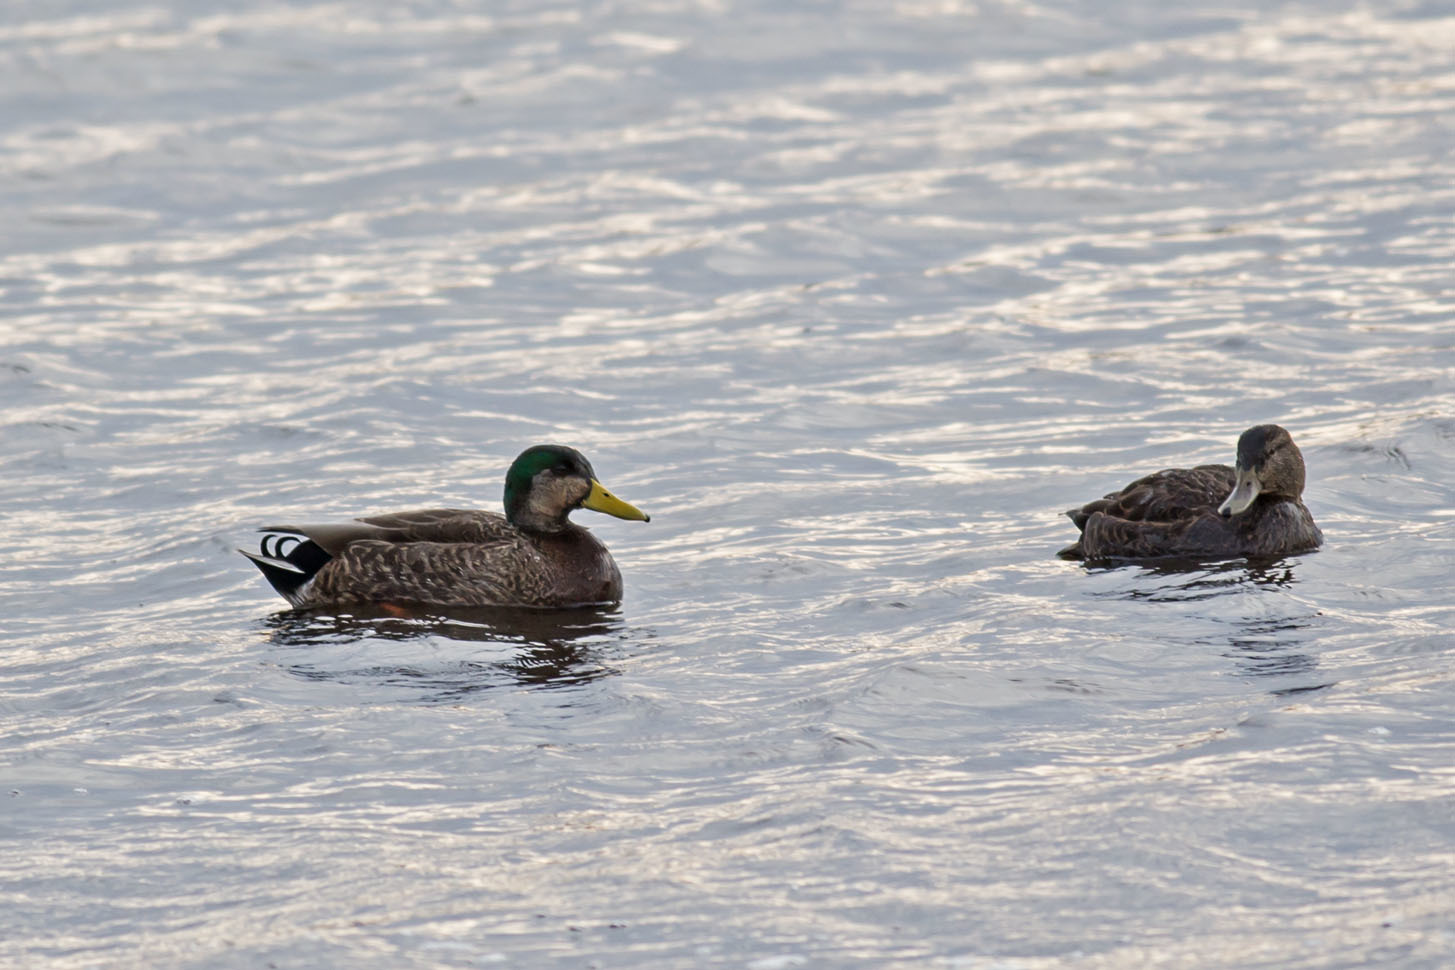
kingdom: Animalia
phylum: Chordata
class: Aves
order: Anseriformes
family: Anatidae
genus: Anas
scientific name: Anas
